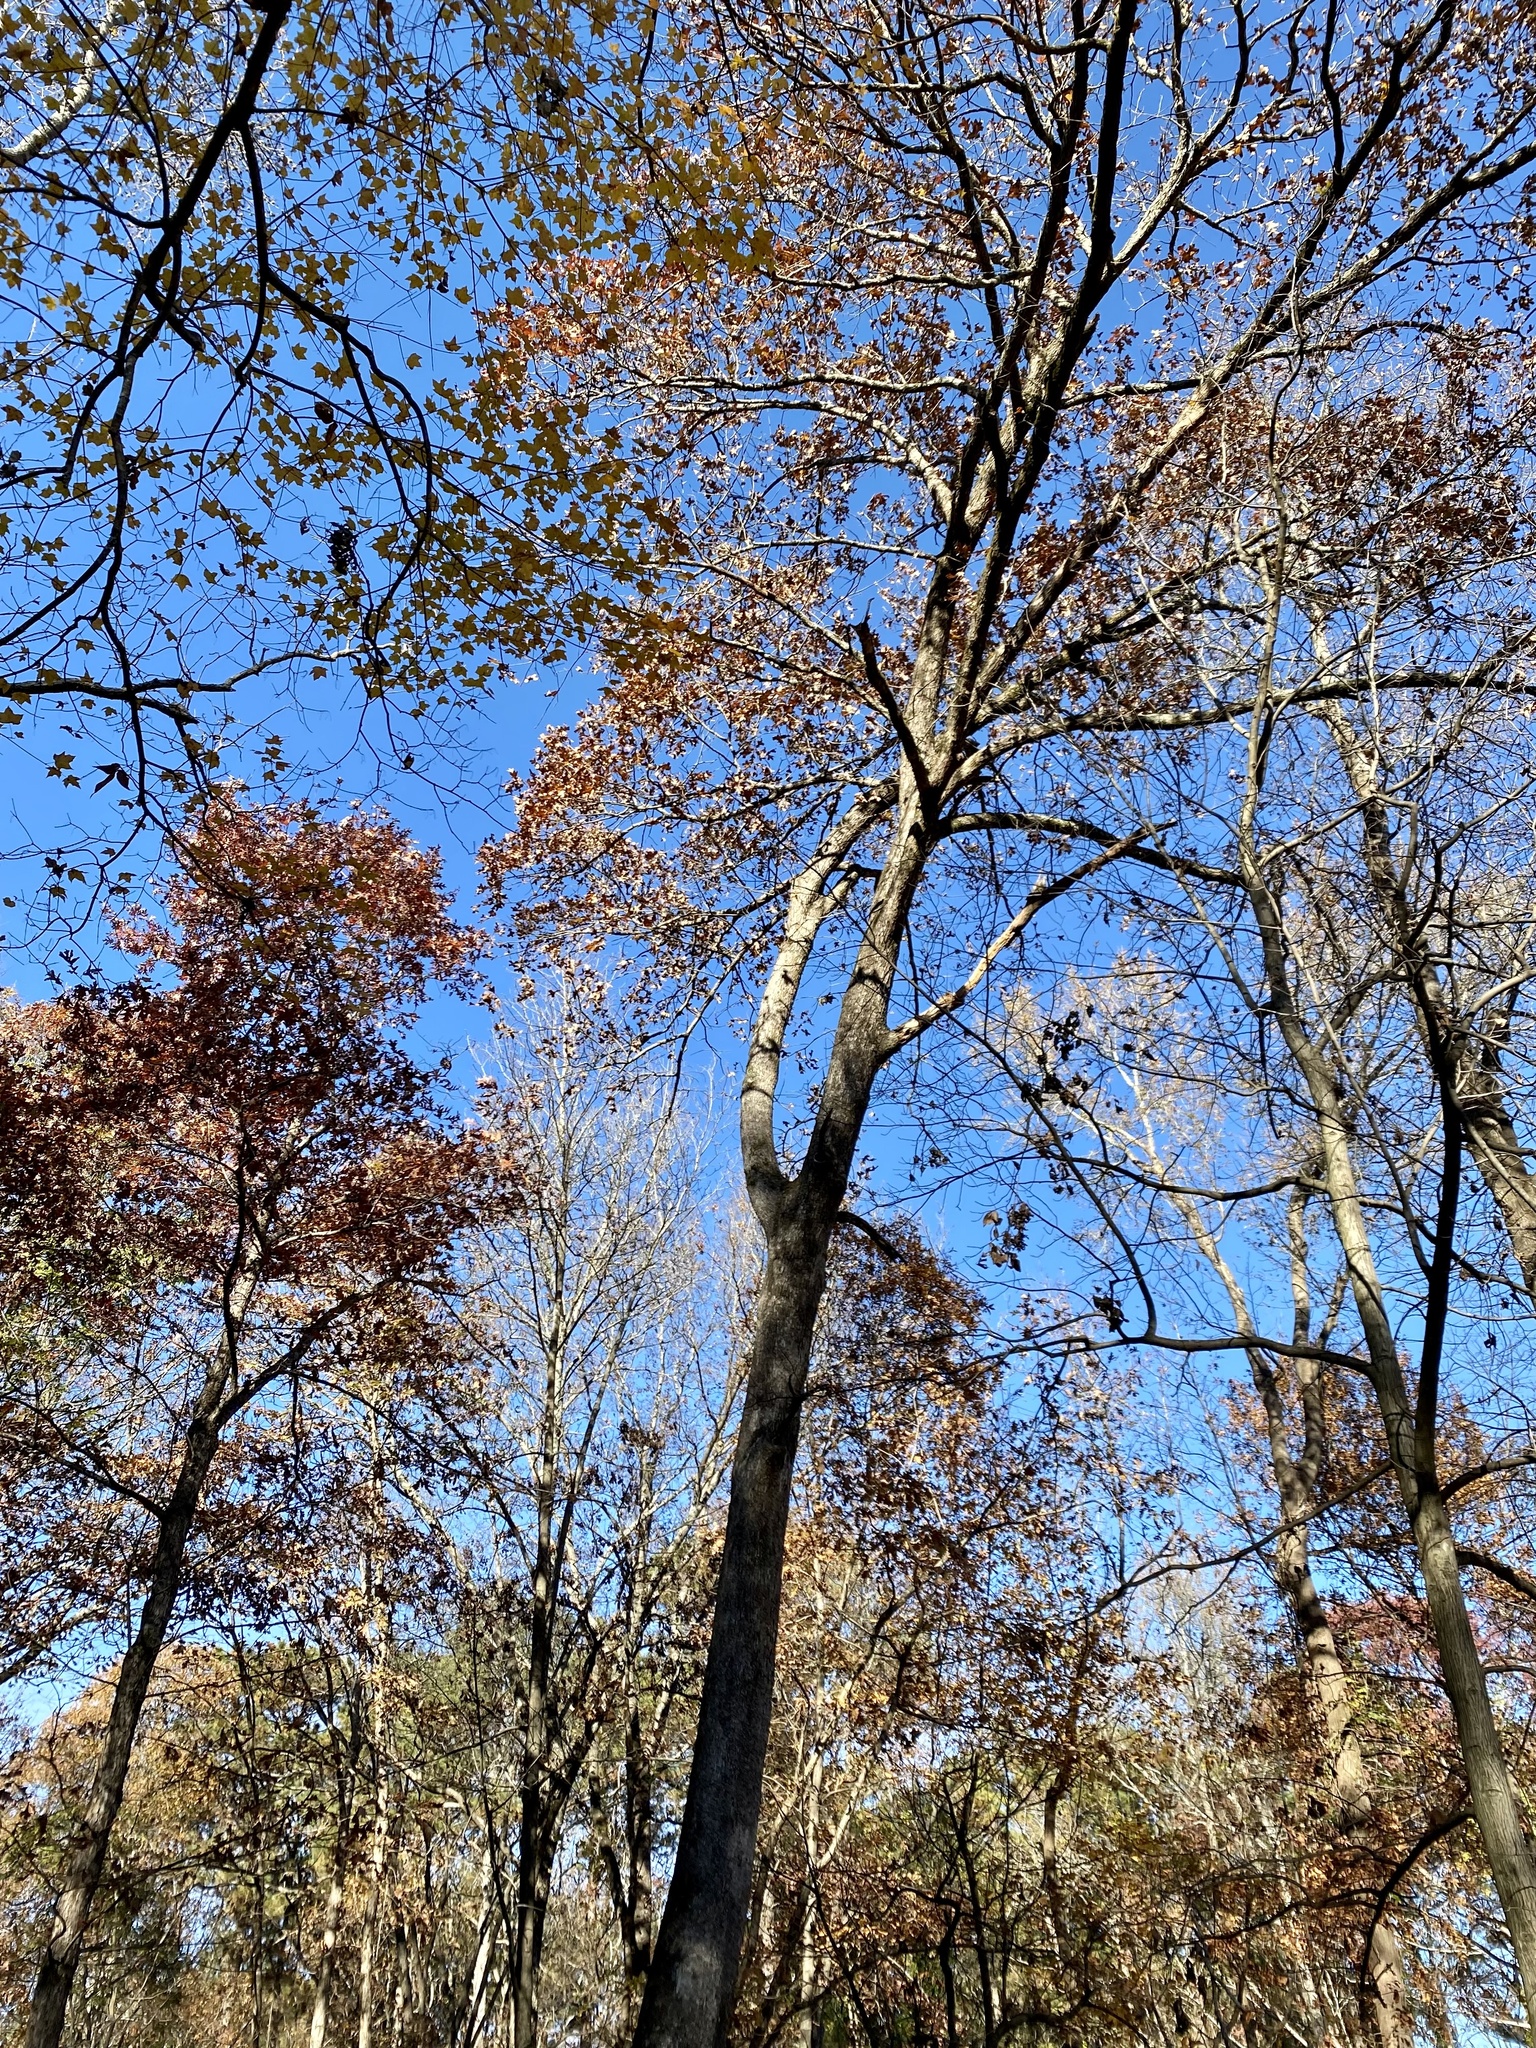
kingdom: Plantae
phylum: Tracheophyta
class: Magnoliopsida
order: Fagales
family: Fagaceae
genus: Quercus
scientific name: Quercus stellata
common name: Post oak
